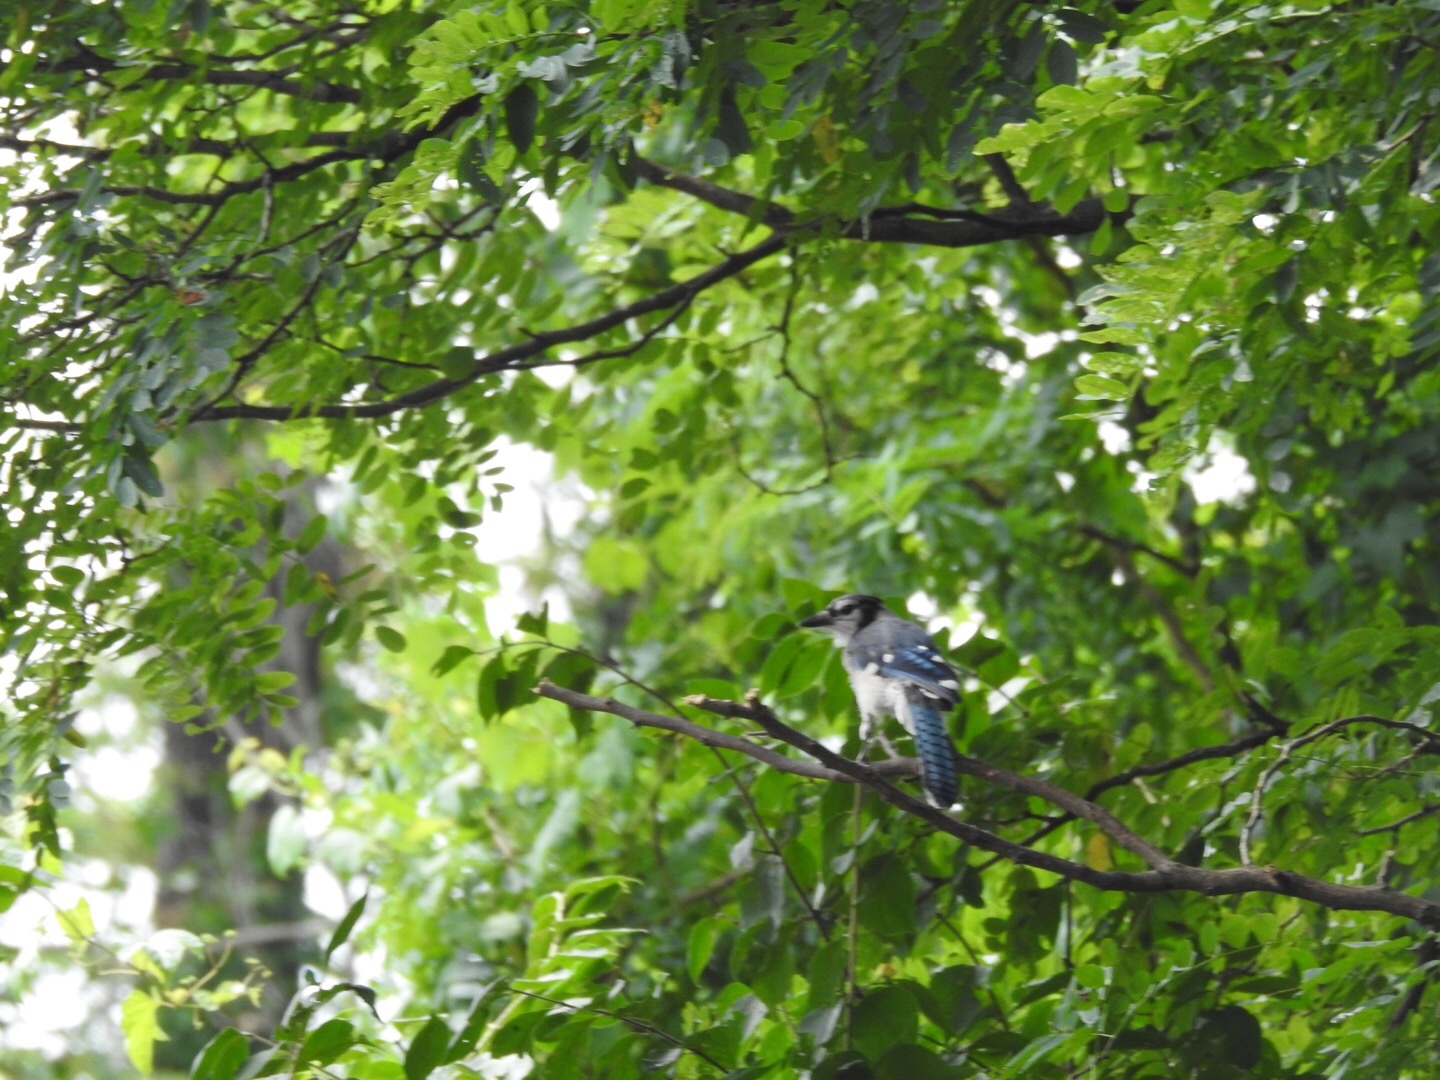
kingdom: Animalia
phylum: Chordata
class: Aves
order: Passeriformes
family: Corvidae
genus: Cyanocitta
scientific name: Cyanocitta cristata
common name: Blue jay
